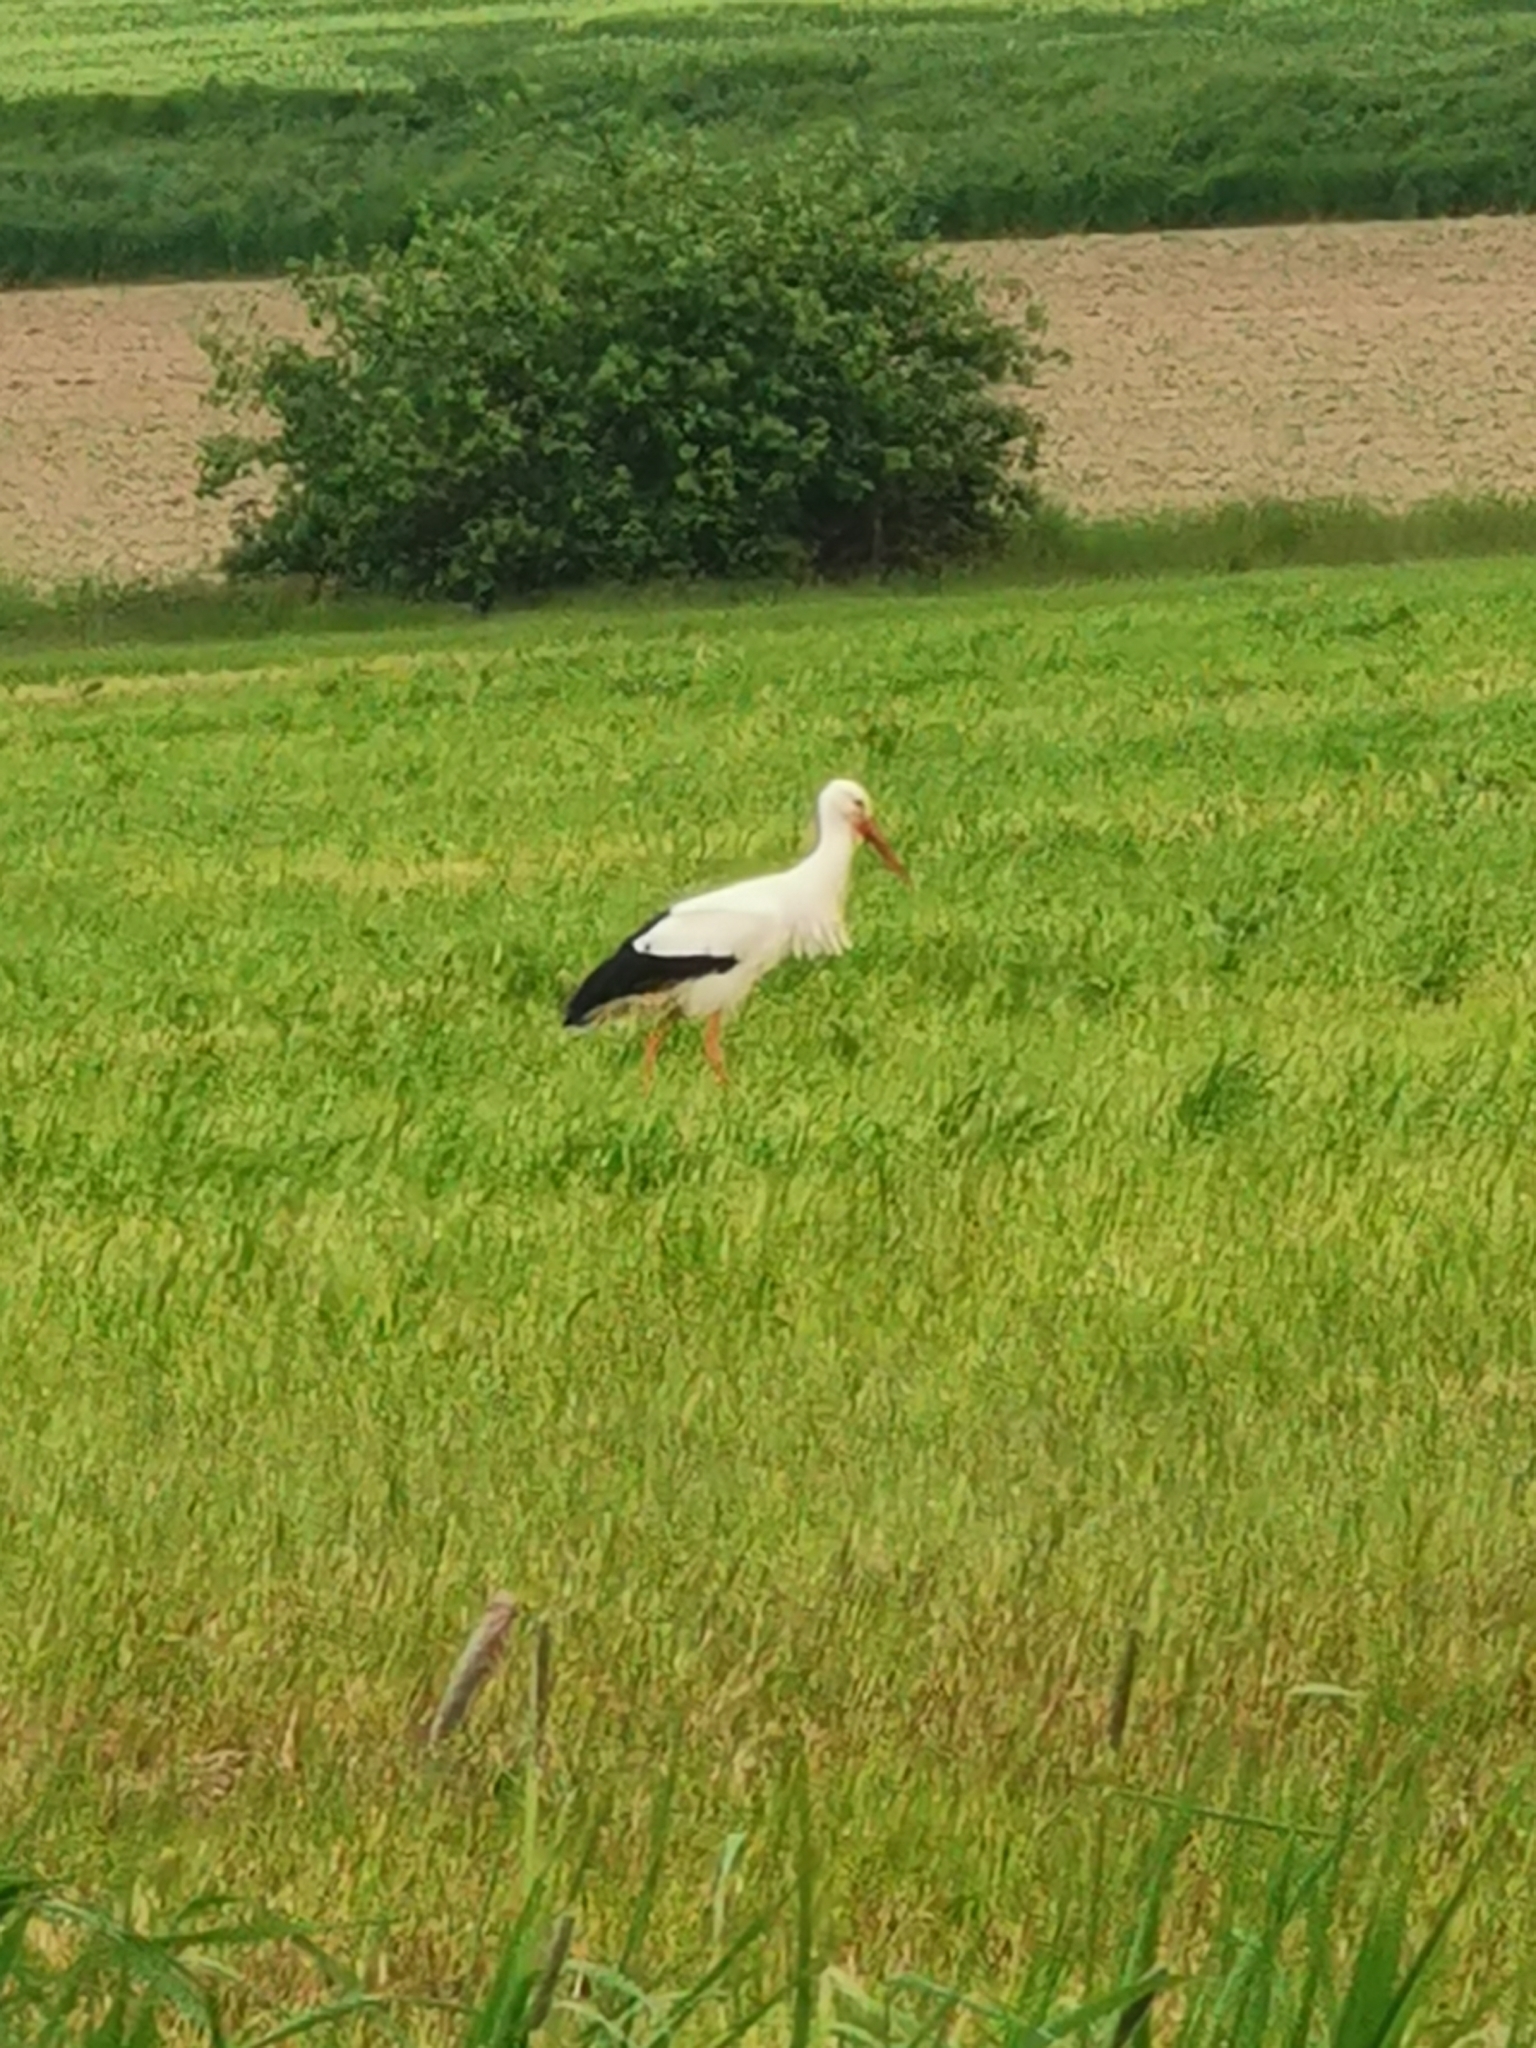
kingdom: Animalia
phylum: Chordata
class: Aves
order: Ciconiiformes
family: Ciconiidae
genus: Ciconia
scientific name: Ciconia ciconia
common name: White stork
